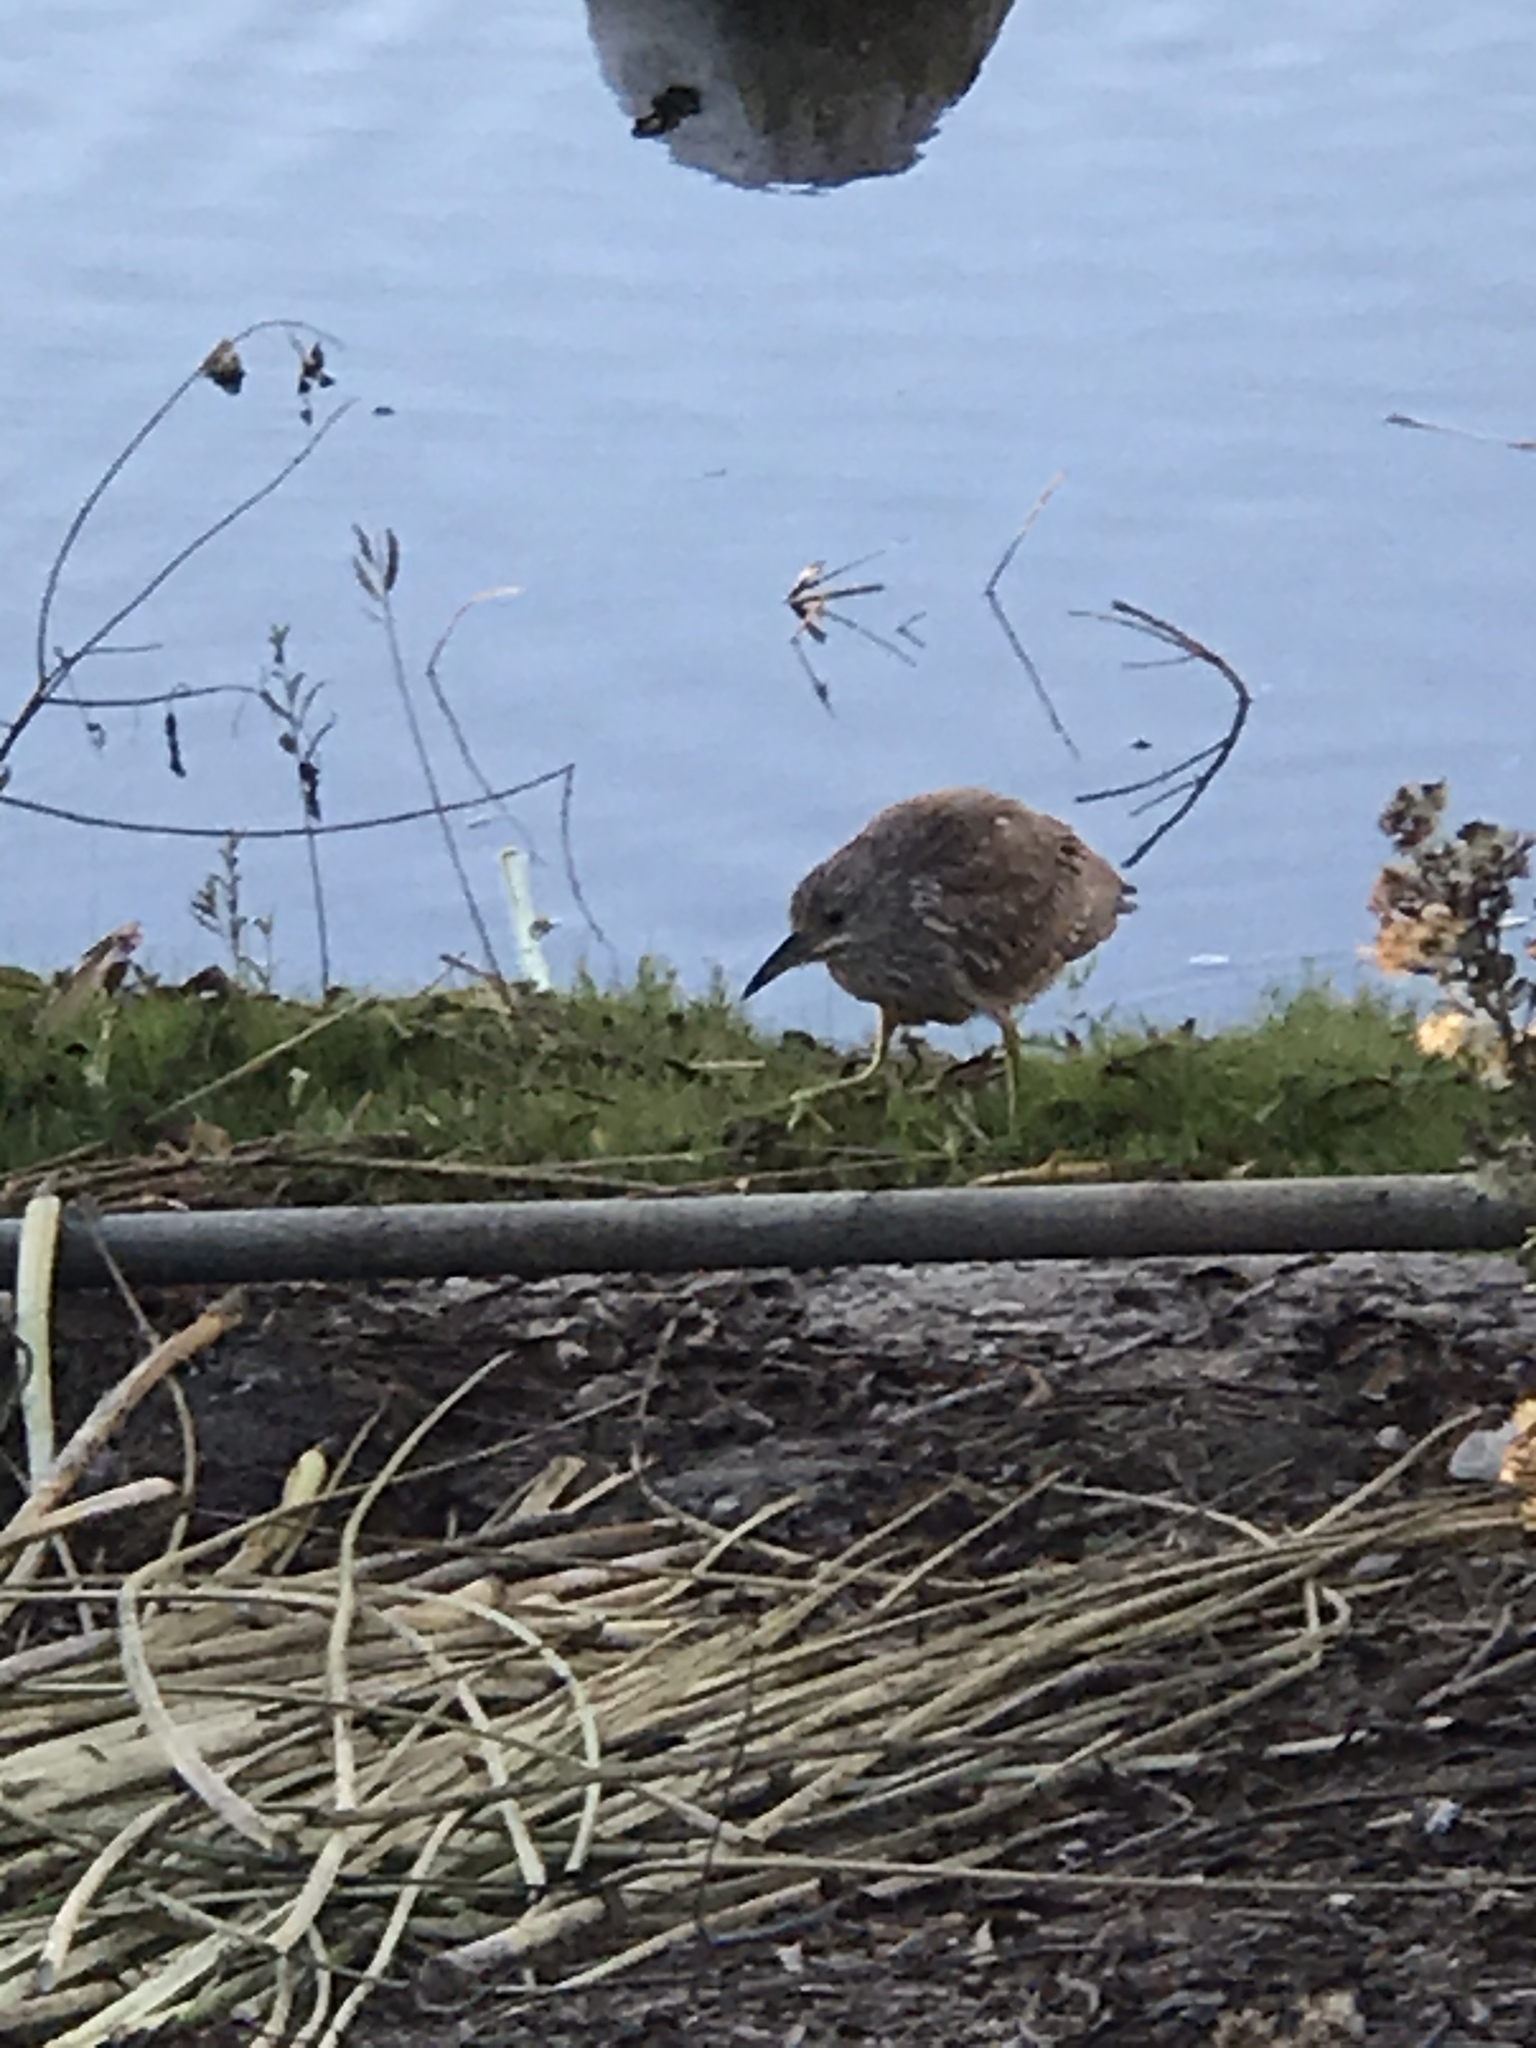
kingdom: Animalia
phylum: Chordata
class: Aves
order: Pelecaniformes
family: Ardeidae
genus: Nycticorax
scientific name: Nycticorax nycticorax
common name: Black-crowned night heron
